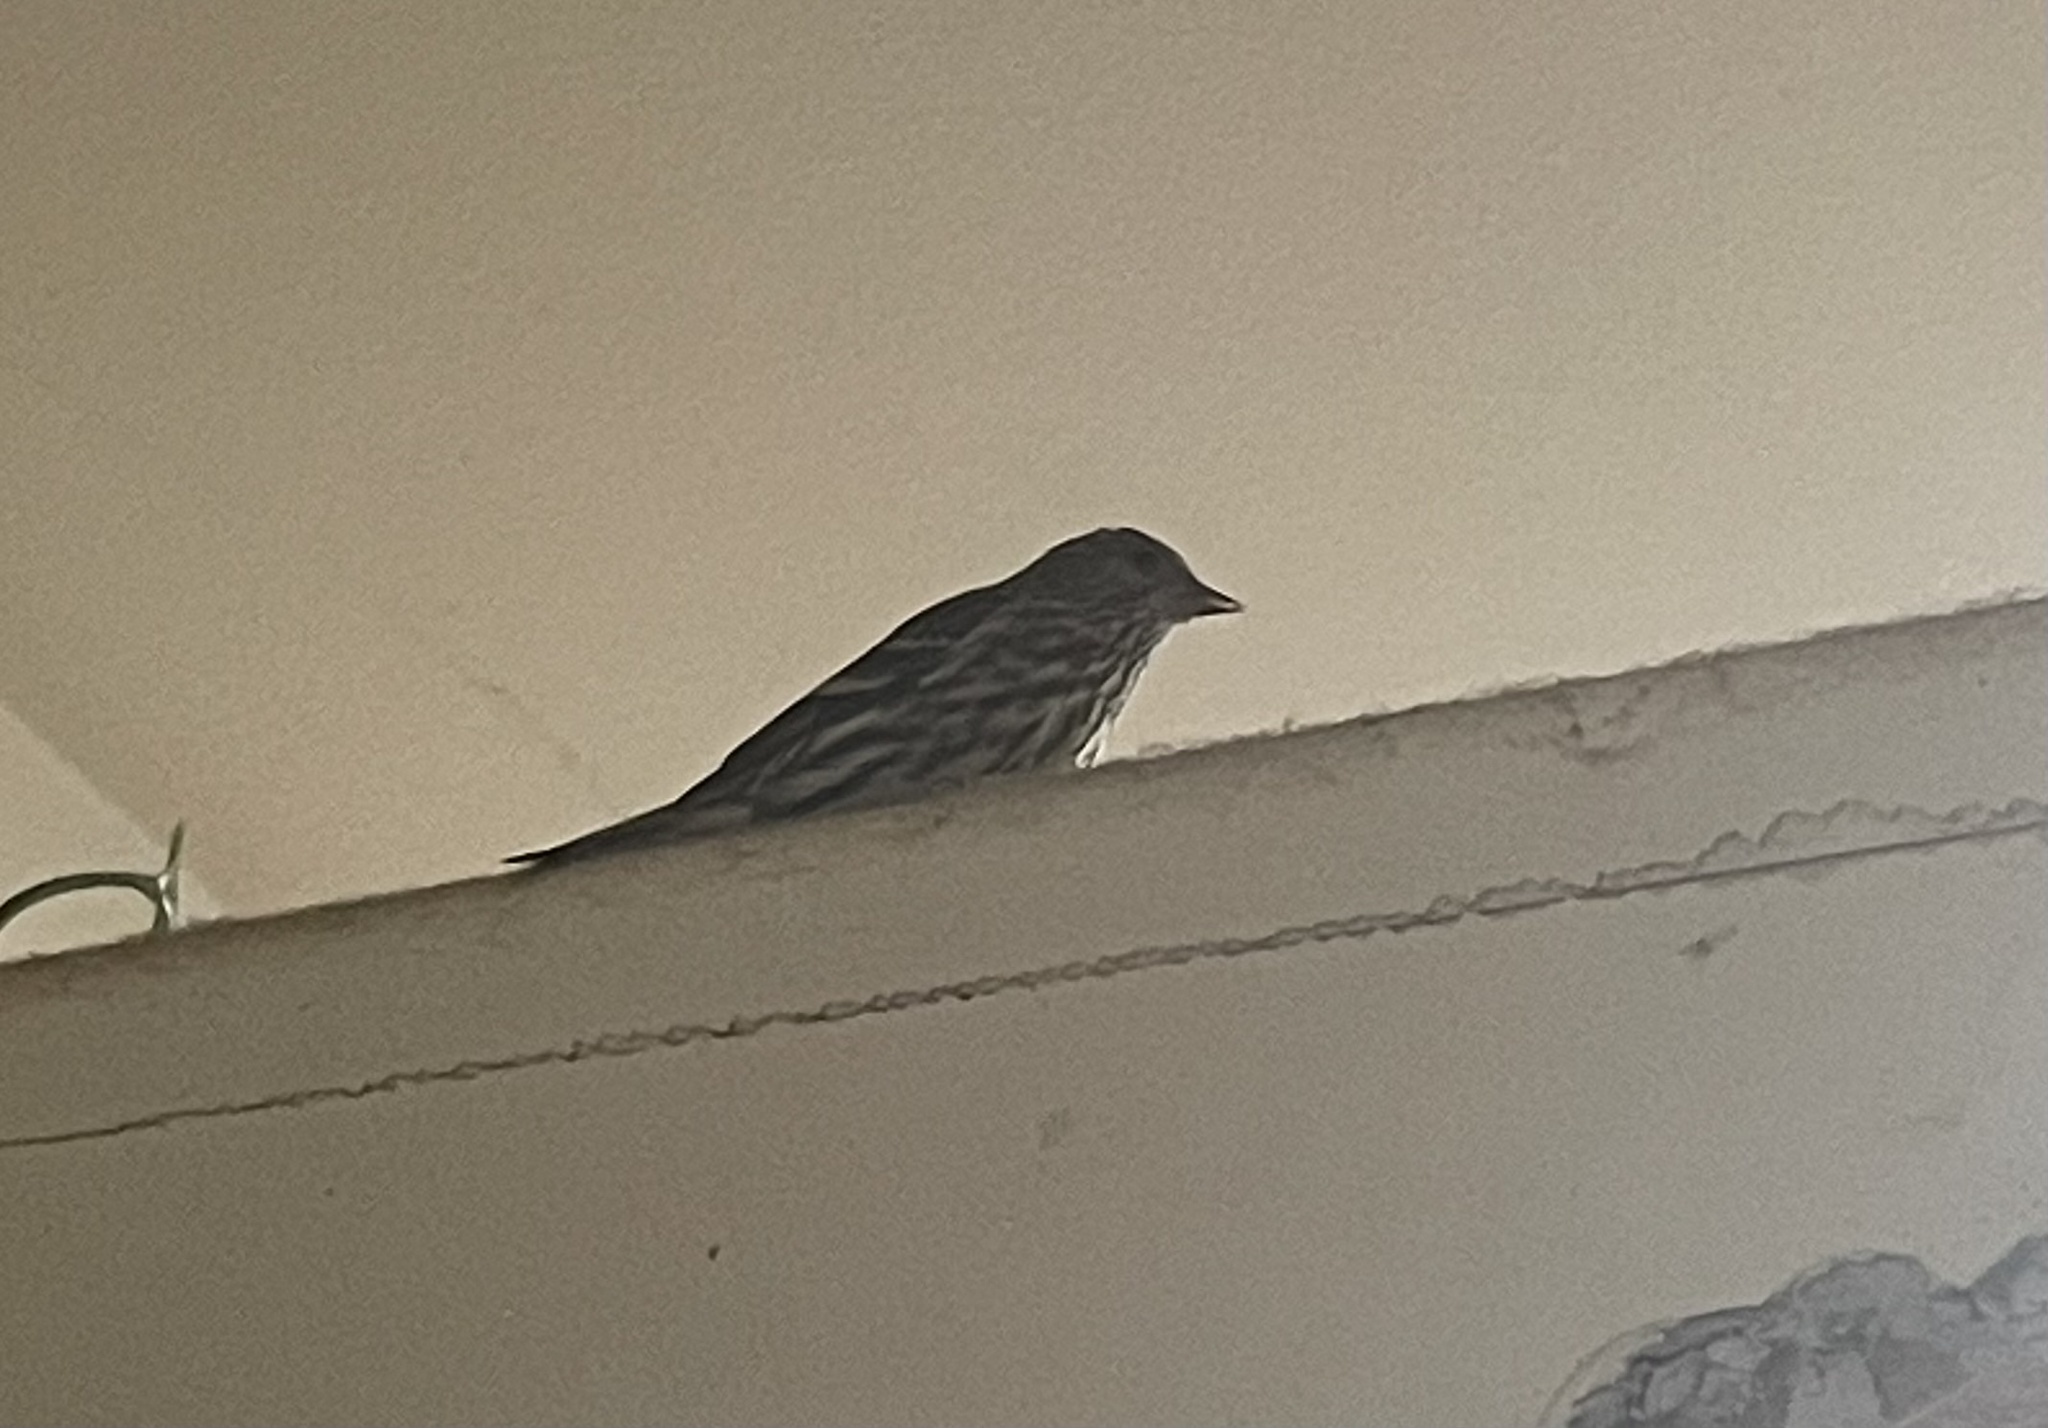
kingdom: Animalia
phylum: Chordata
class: Aves
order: Passeriformes
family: Fringillidae
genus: Spinus
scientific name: Spinus pinus
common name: Pine siskin
